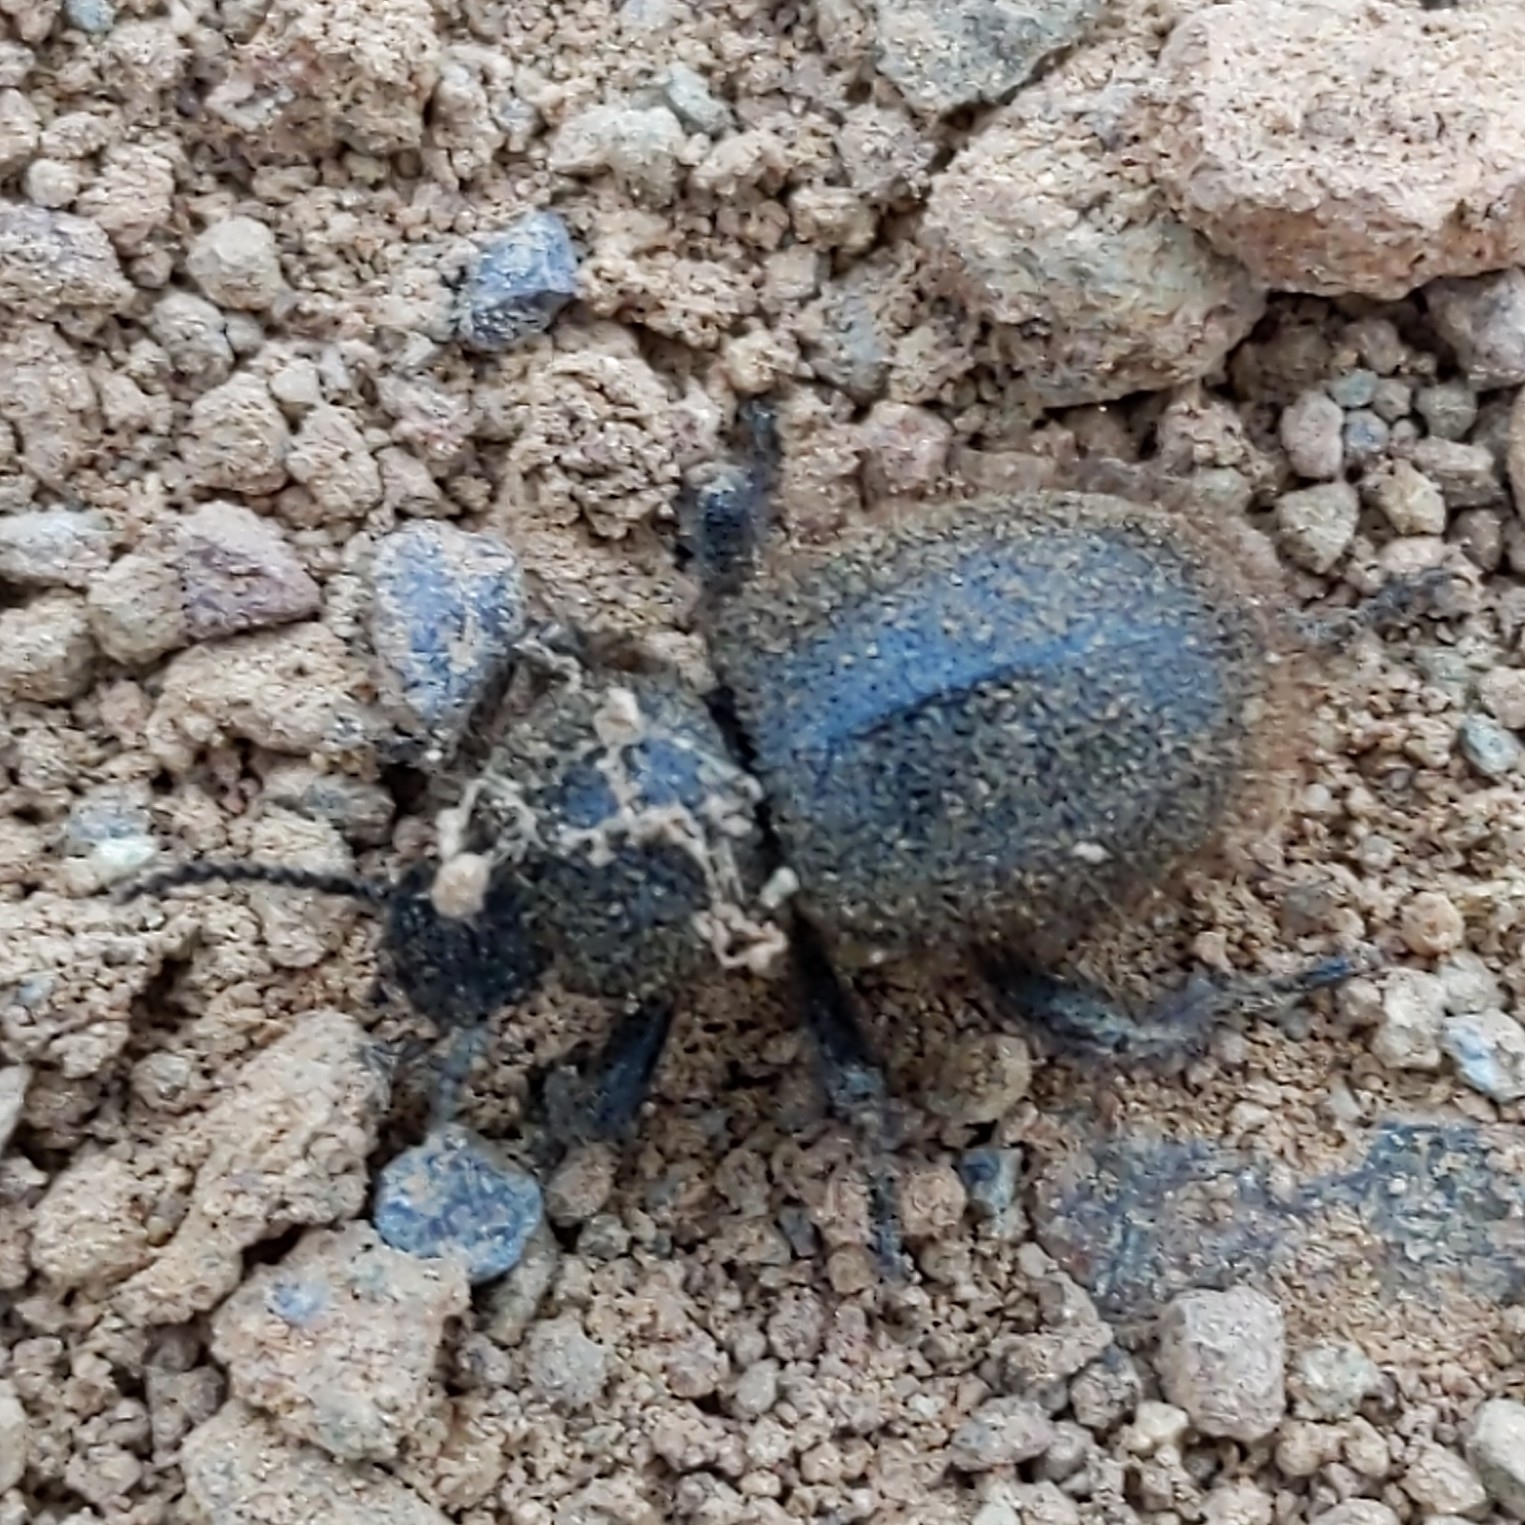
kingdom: Animalia
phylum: Arthropoda
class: Insecta
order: Coleoptera
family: Tenebrionidae
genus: Eleodes
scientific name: Eleodes osculans
